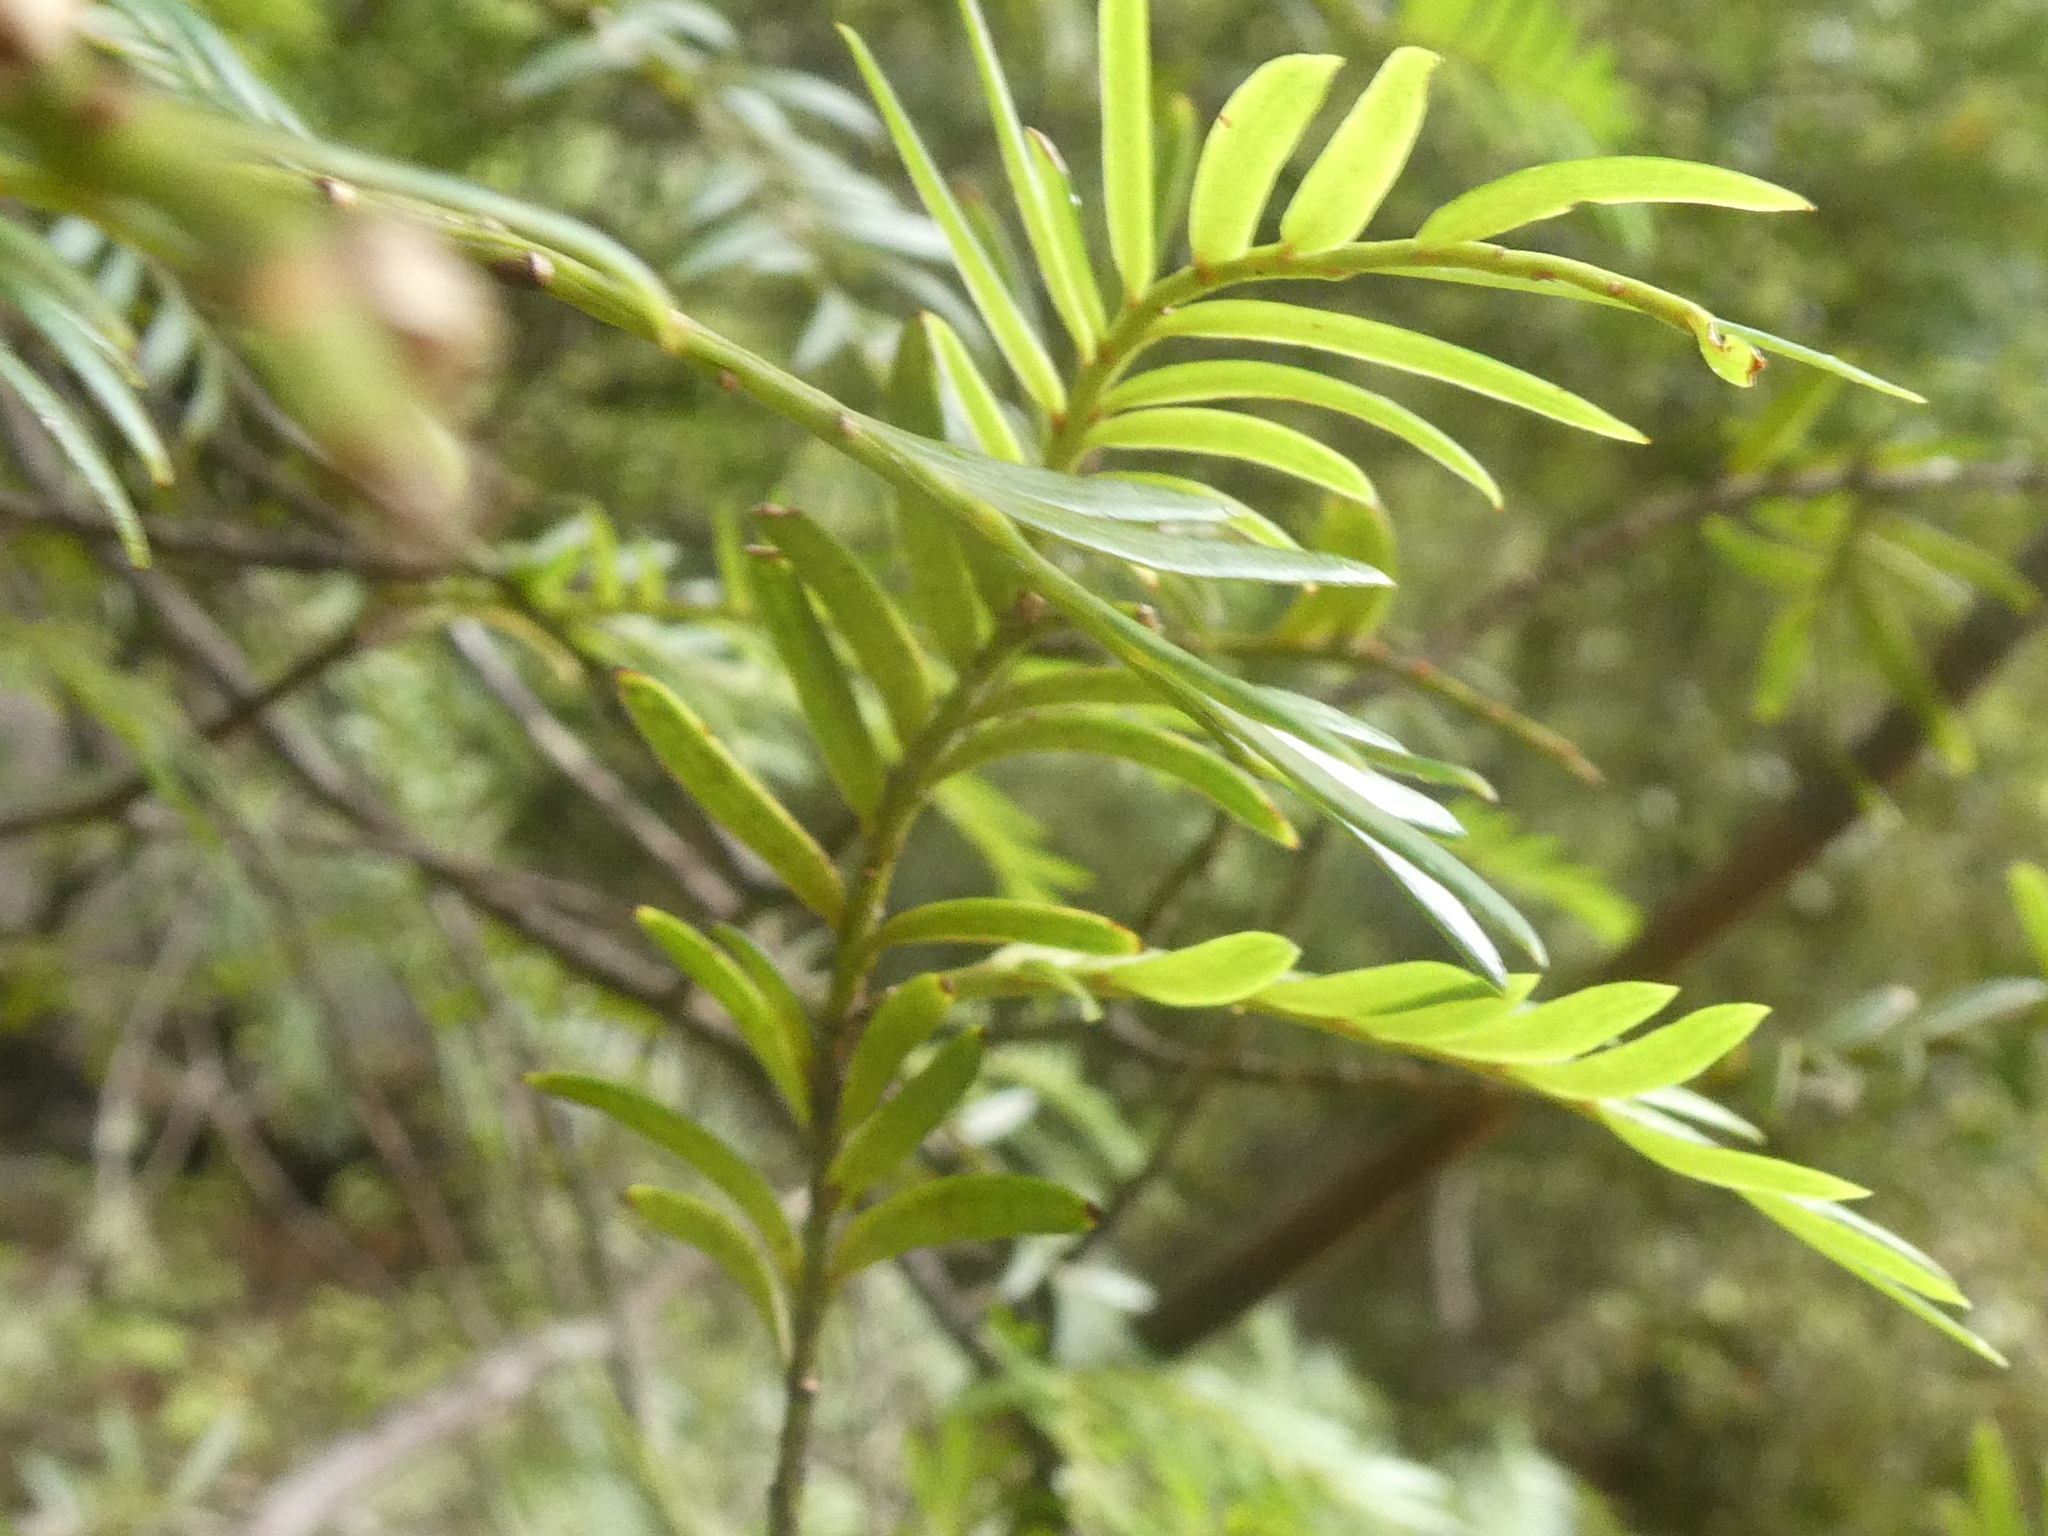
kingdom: Plantae
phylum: Tracheophyta
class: Pinopsida
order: Pinales
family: Podocarpaceae
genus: Prumnopitys
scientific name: Prumnopitys ferruginea
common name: Brown pine
